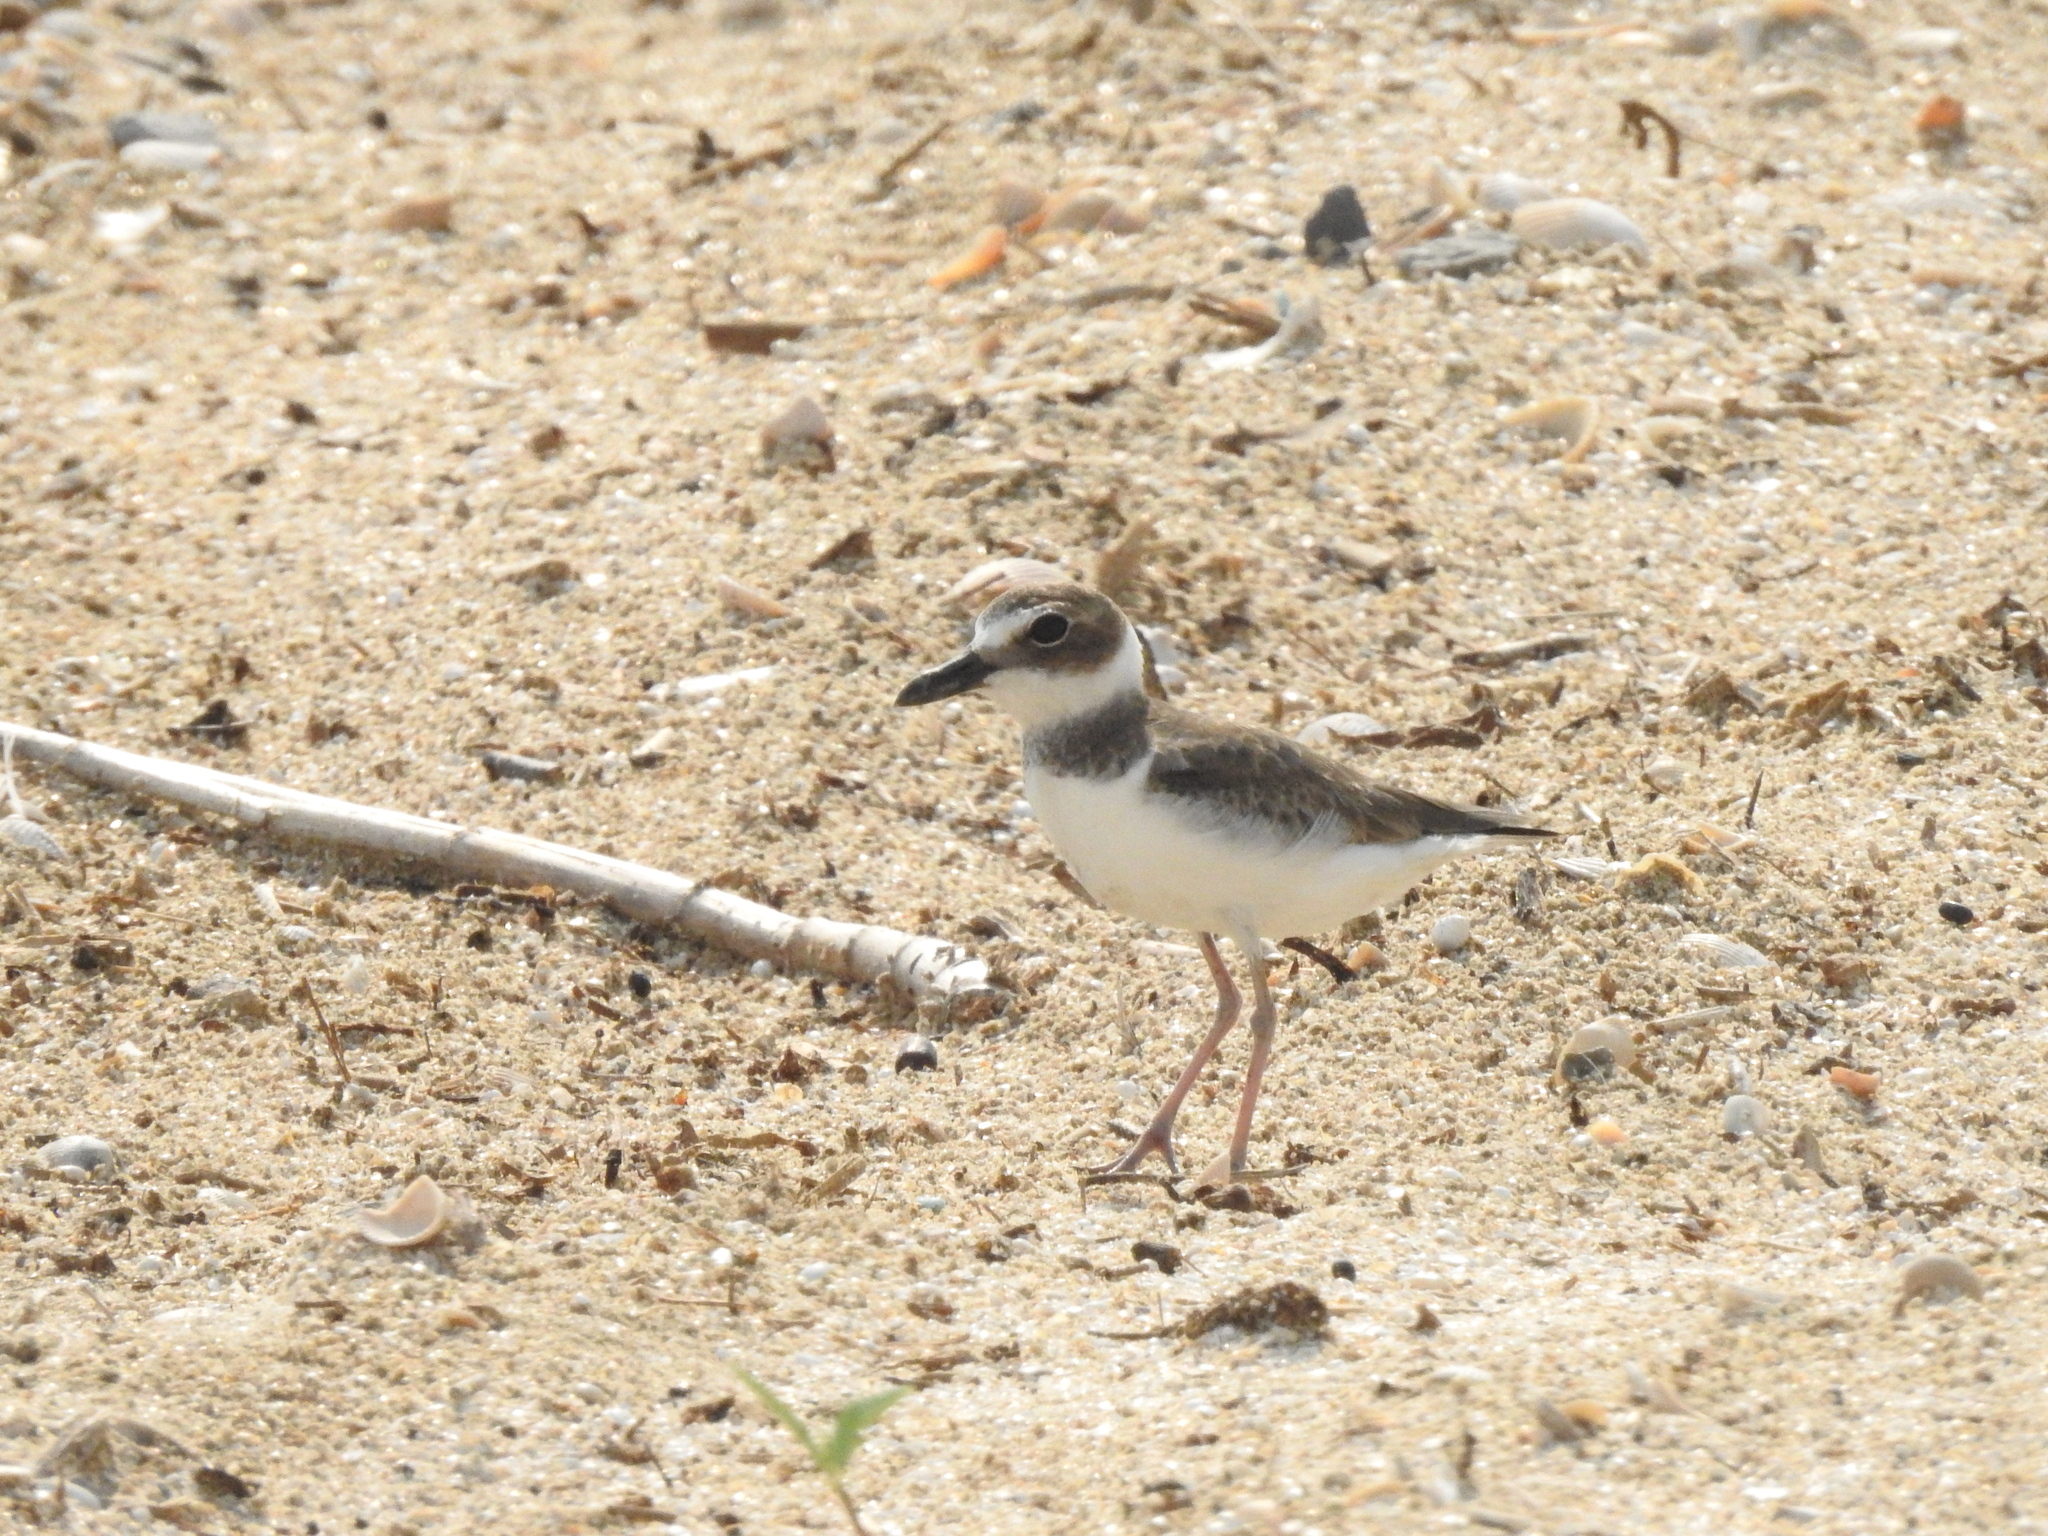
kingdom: Animalia
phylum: Chordata
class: Aves
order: Charadriiformes
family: Charadriidae
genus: Anarhynchus
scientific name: Anarhynchus
